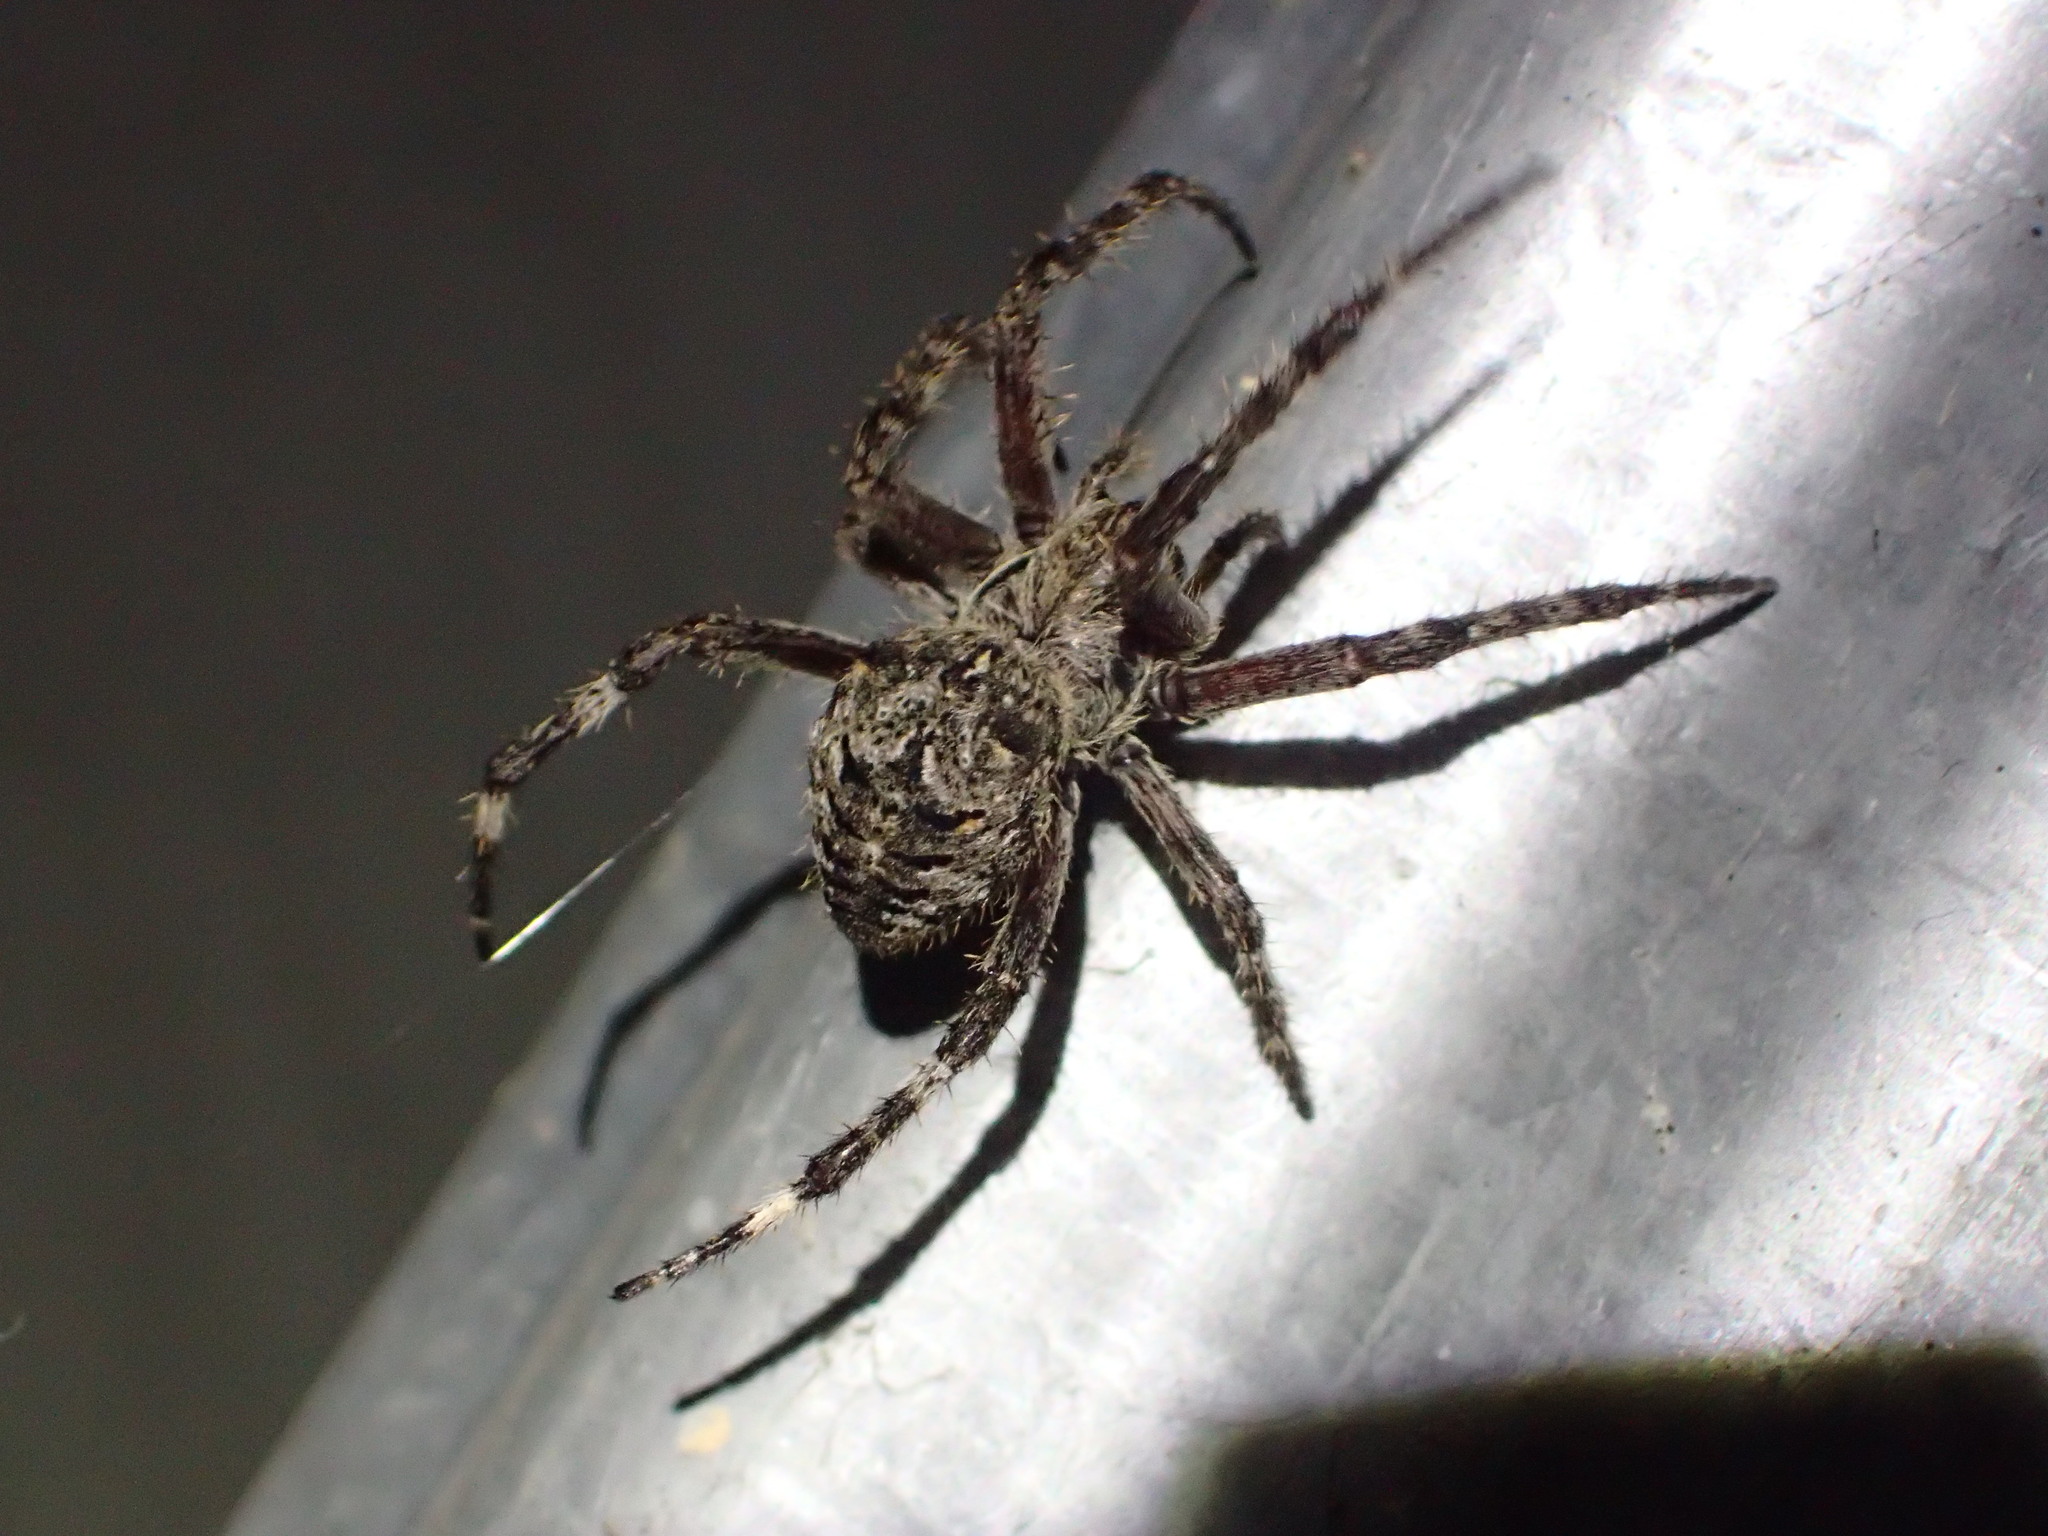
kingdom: Animalia
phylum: Arthropoda
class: Arachnida
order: Araneae
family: Araneidae
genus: Araneus
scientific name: Araneus saevus
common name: Fierce orbweaver
